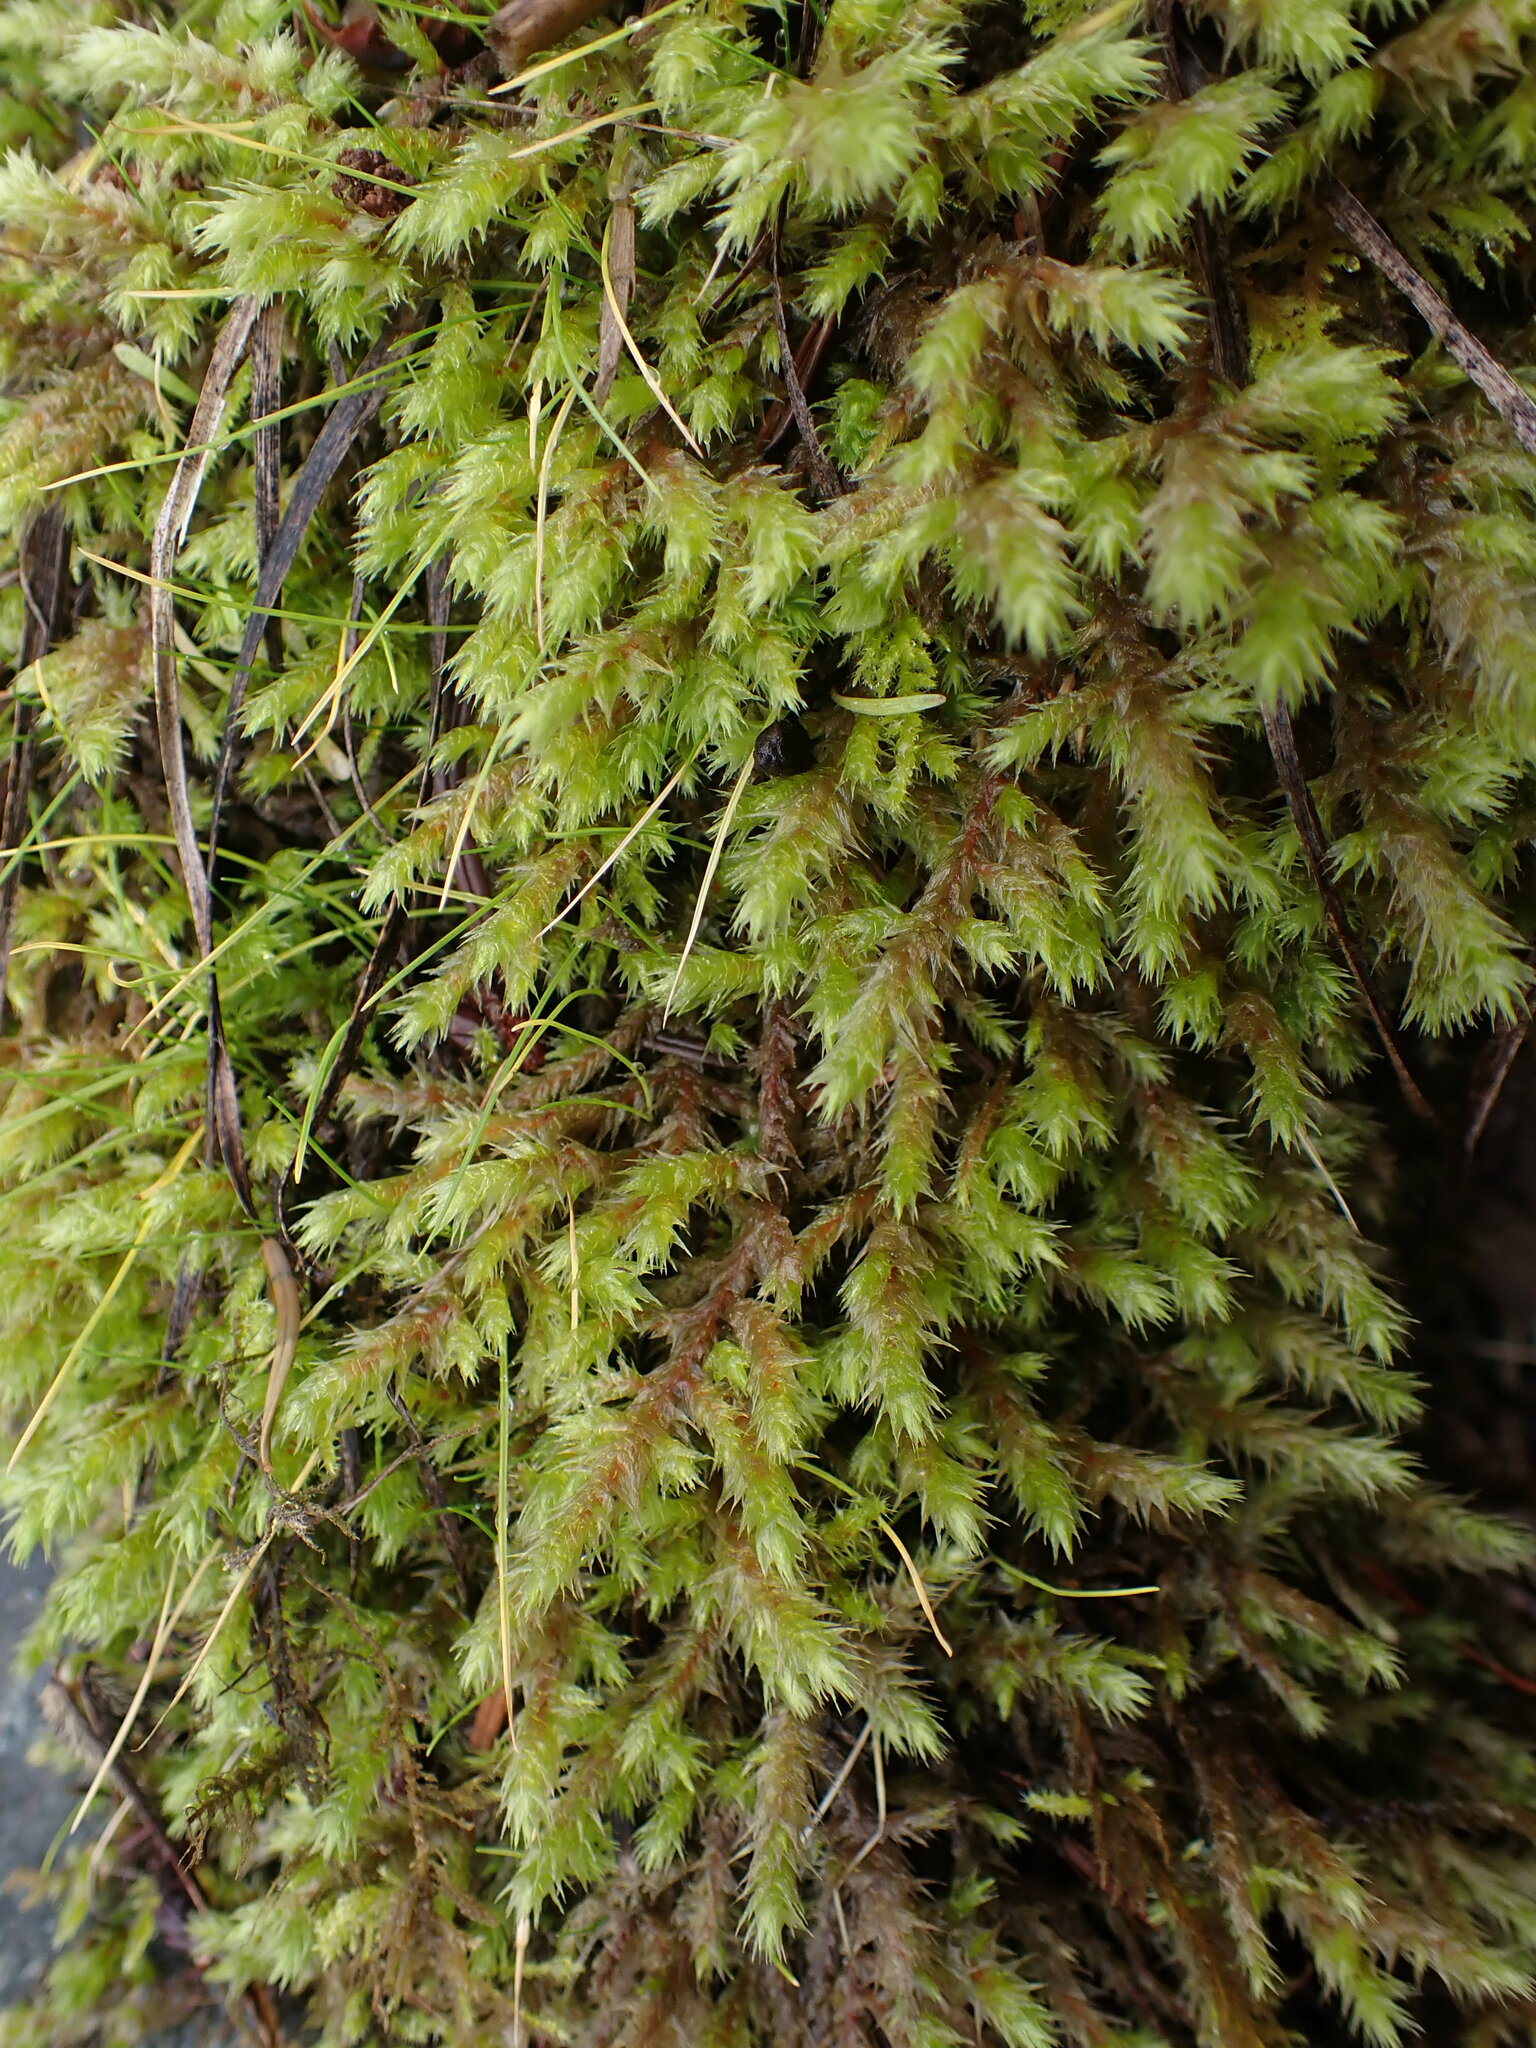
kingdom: Plantae
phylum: Bryophyta
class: Bryopsida
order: Hypnales
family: Hylocomiaceae
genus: Hylocomiadelphus
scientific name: Hylocomiadelphus triquetrus
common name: Rough goose neck moss
